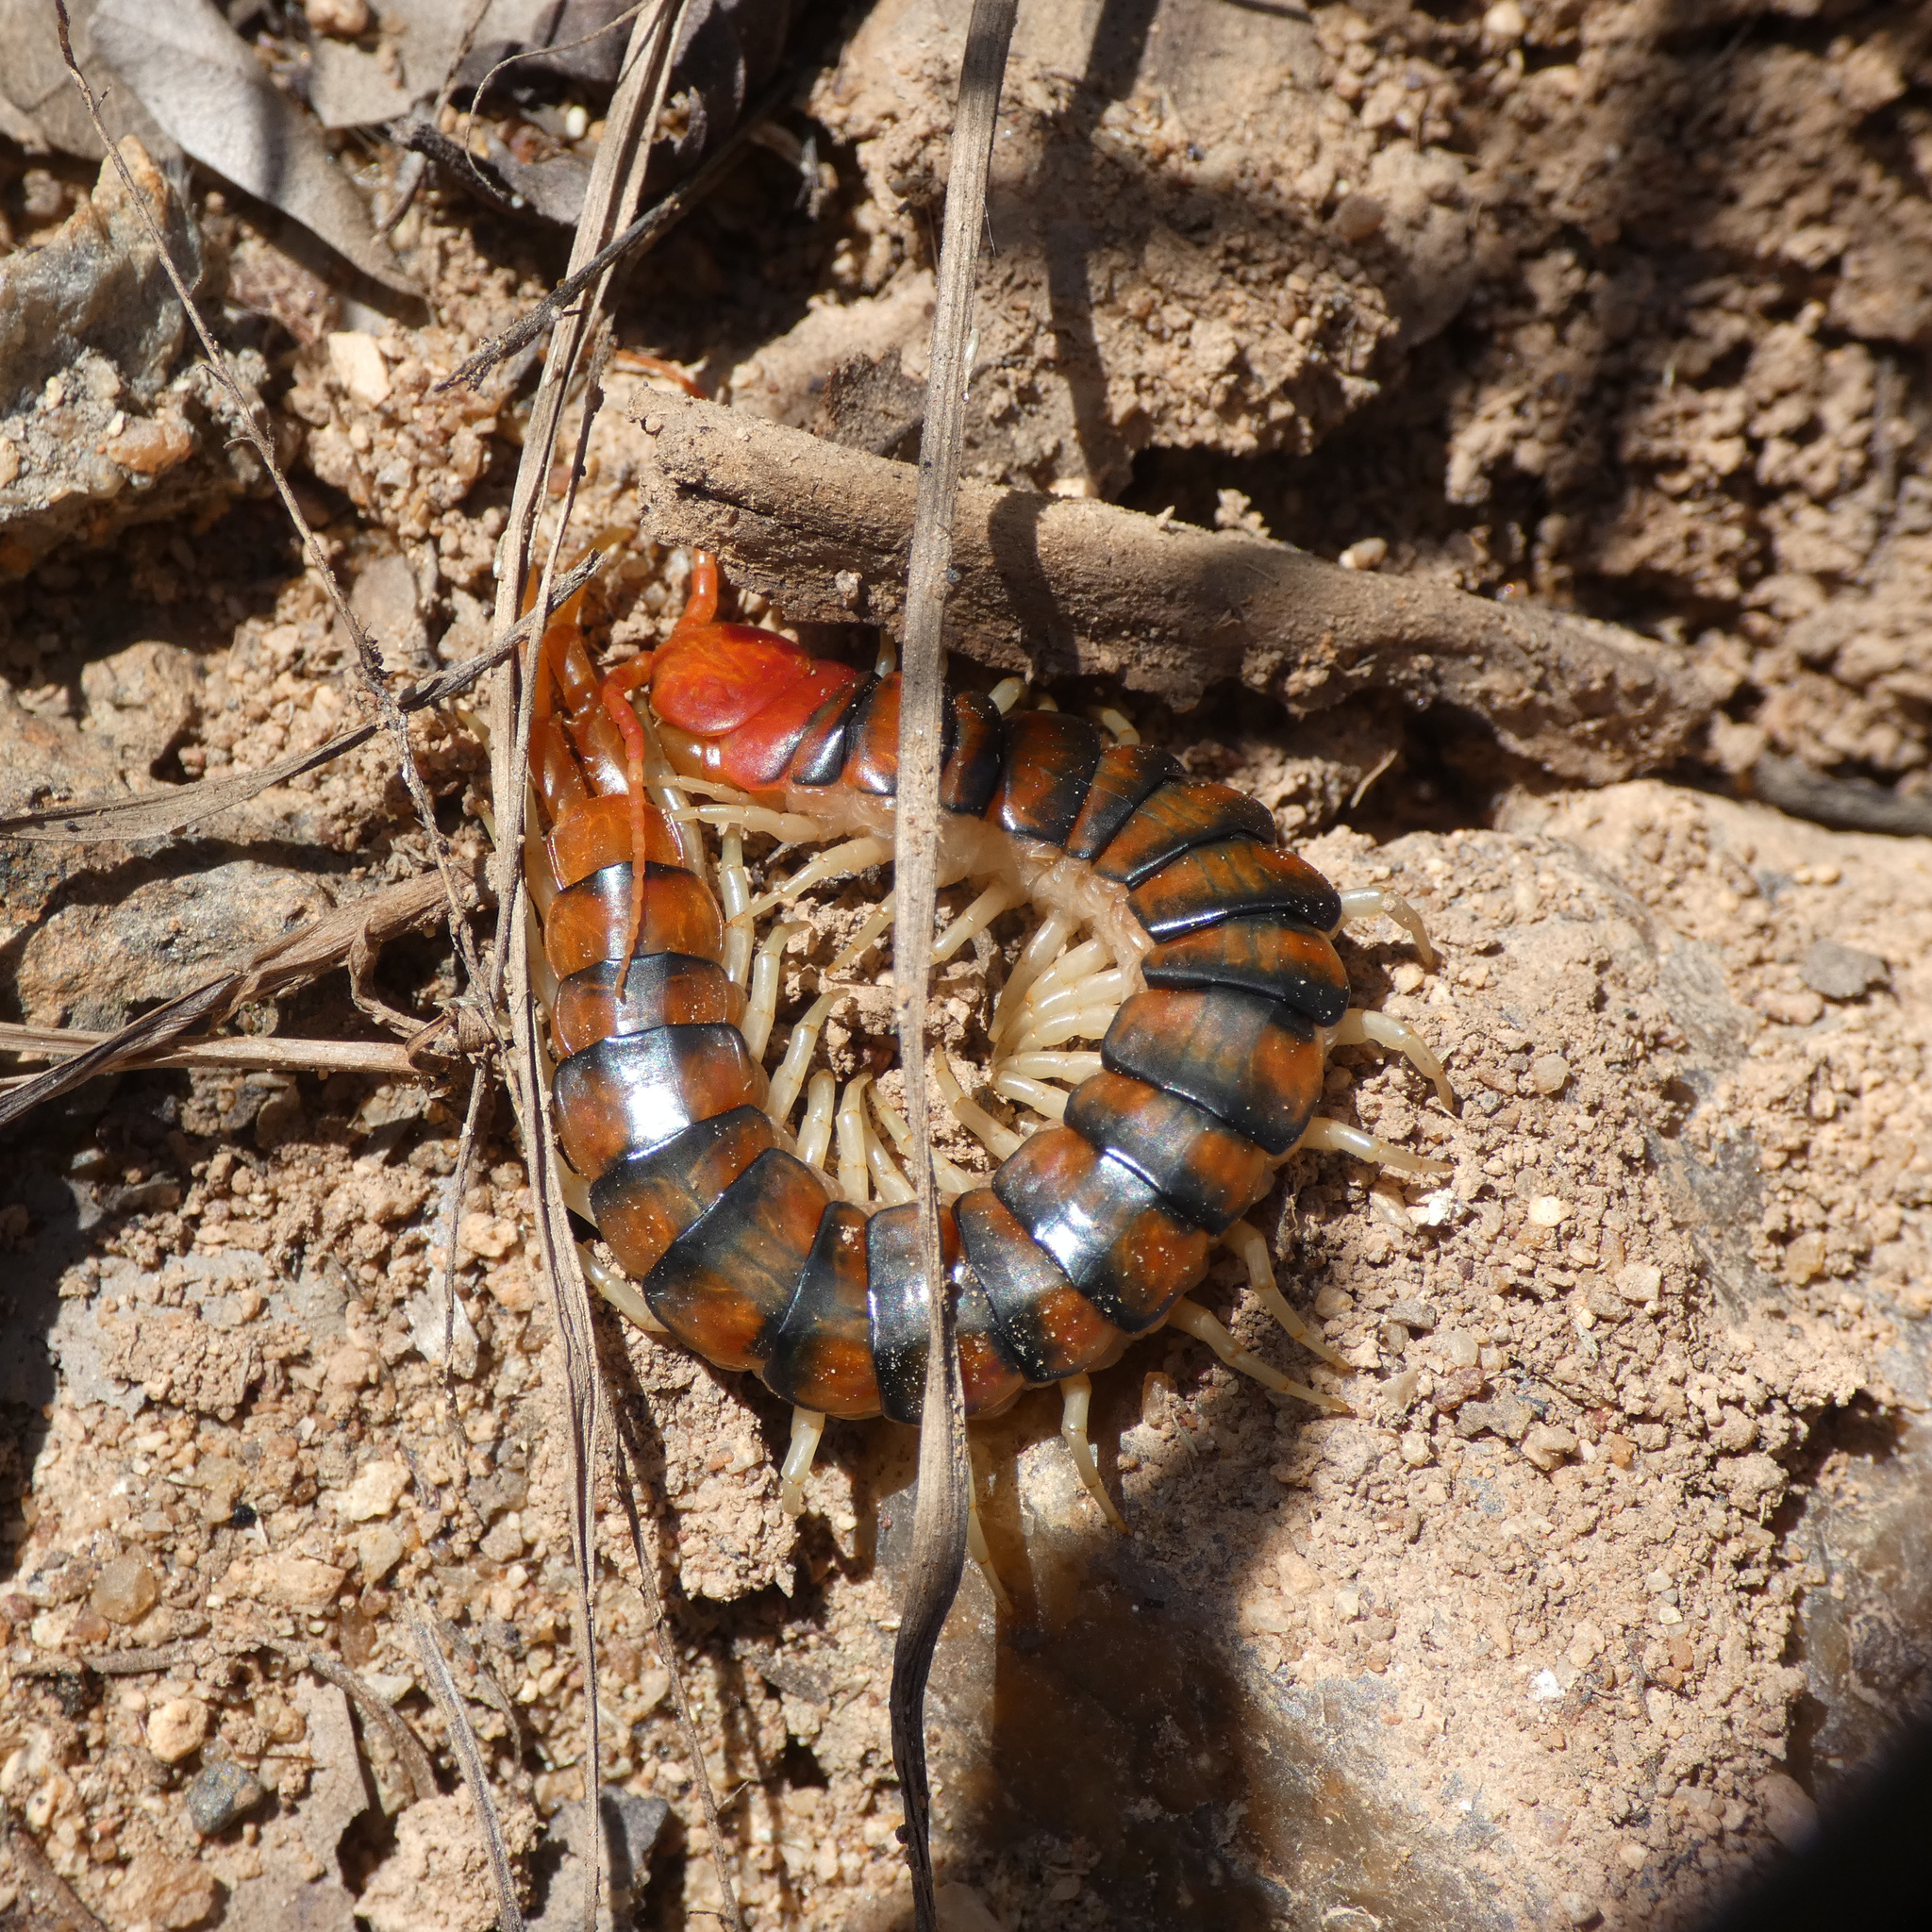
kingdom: Animalia
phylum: Arthropoda
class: Chilopoda
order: Scolopendromorpha
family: Scolopendridae
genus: Scolopendra
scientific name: Scolopendra morsitans
